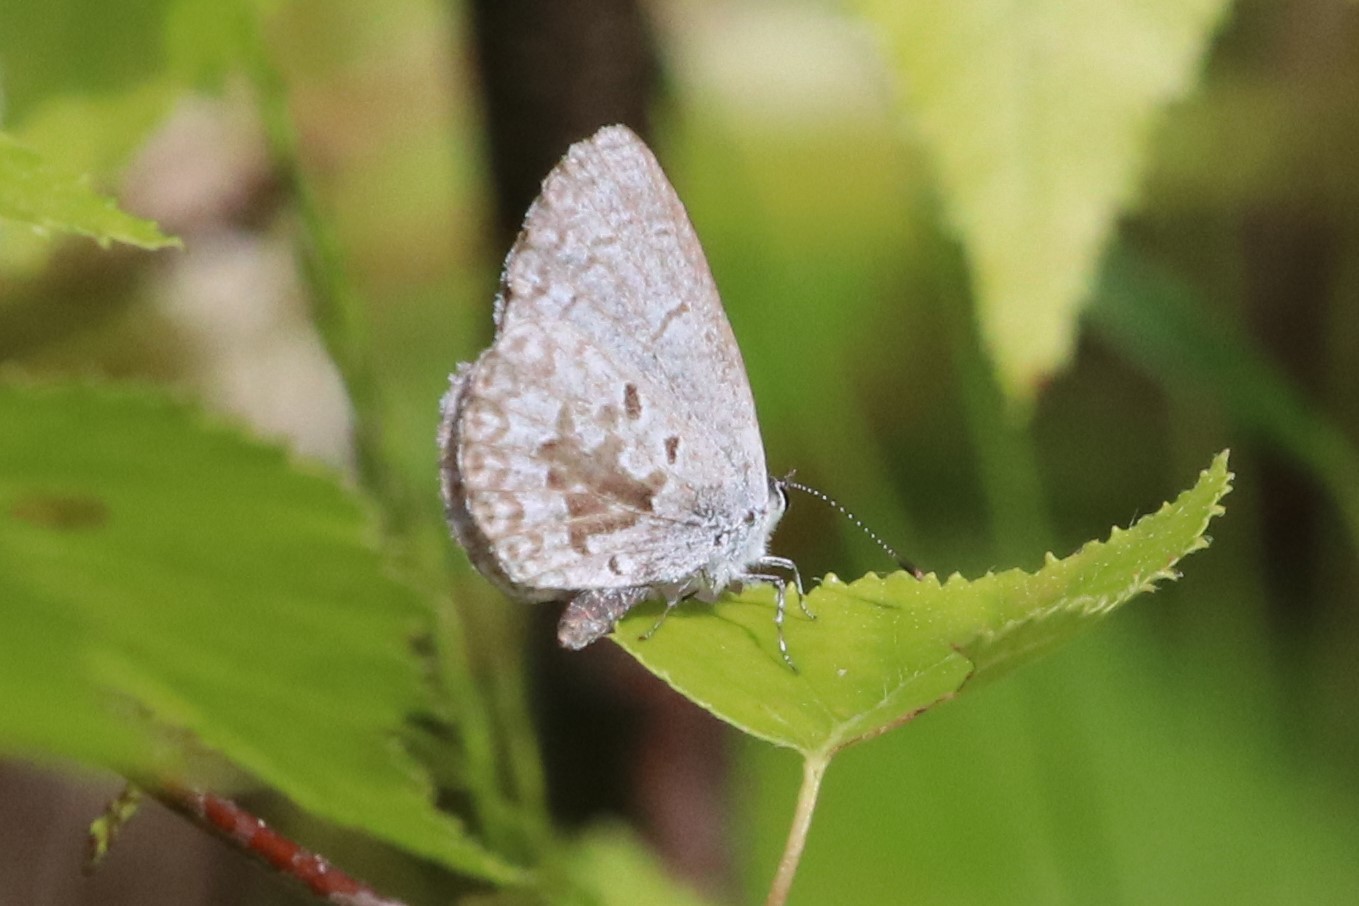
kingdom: Animalia
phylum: Arthropoda
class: Insecta
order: Lepidoptera
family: Lycaenidae
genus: Celastrina
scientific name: Celastrina lucia
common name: Lucia azure
